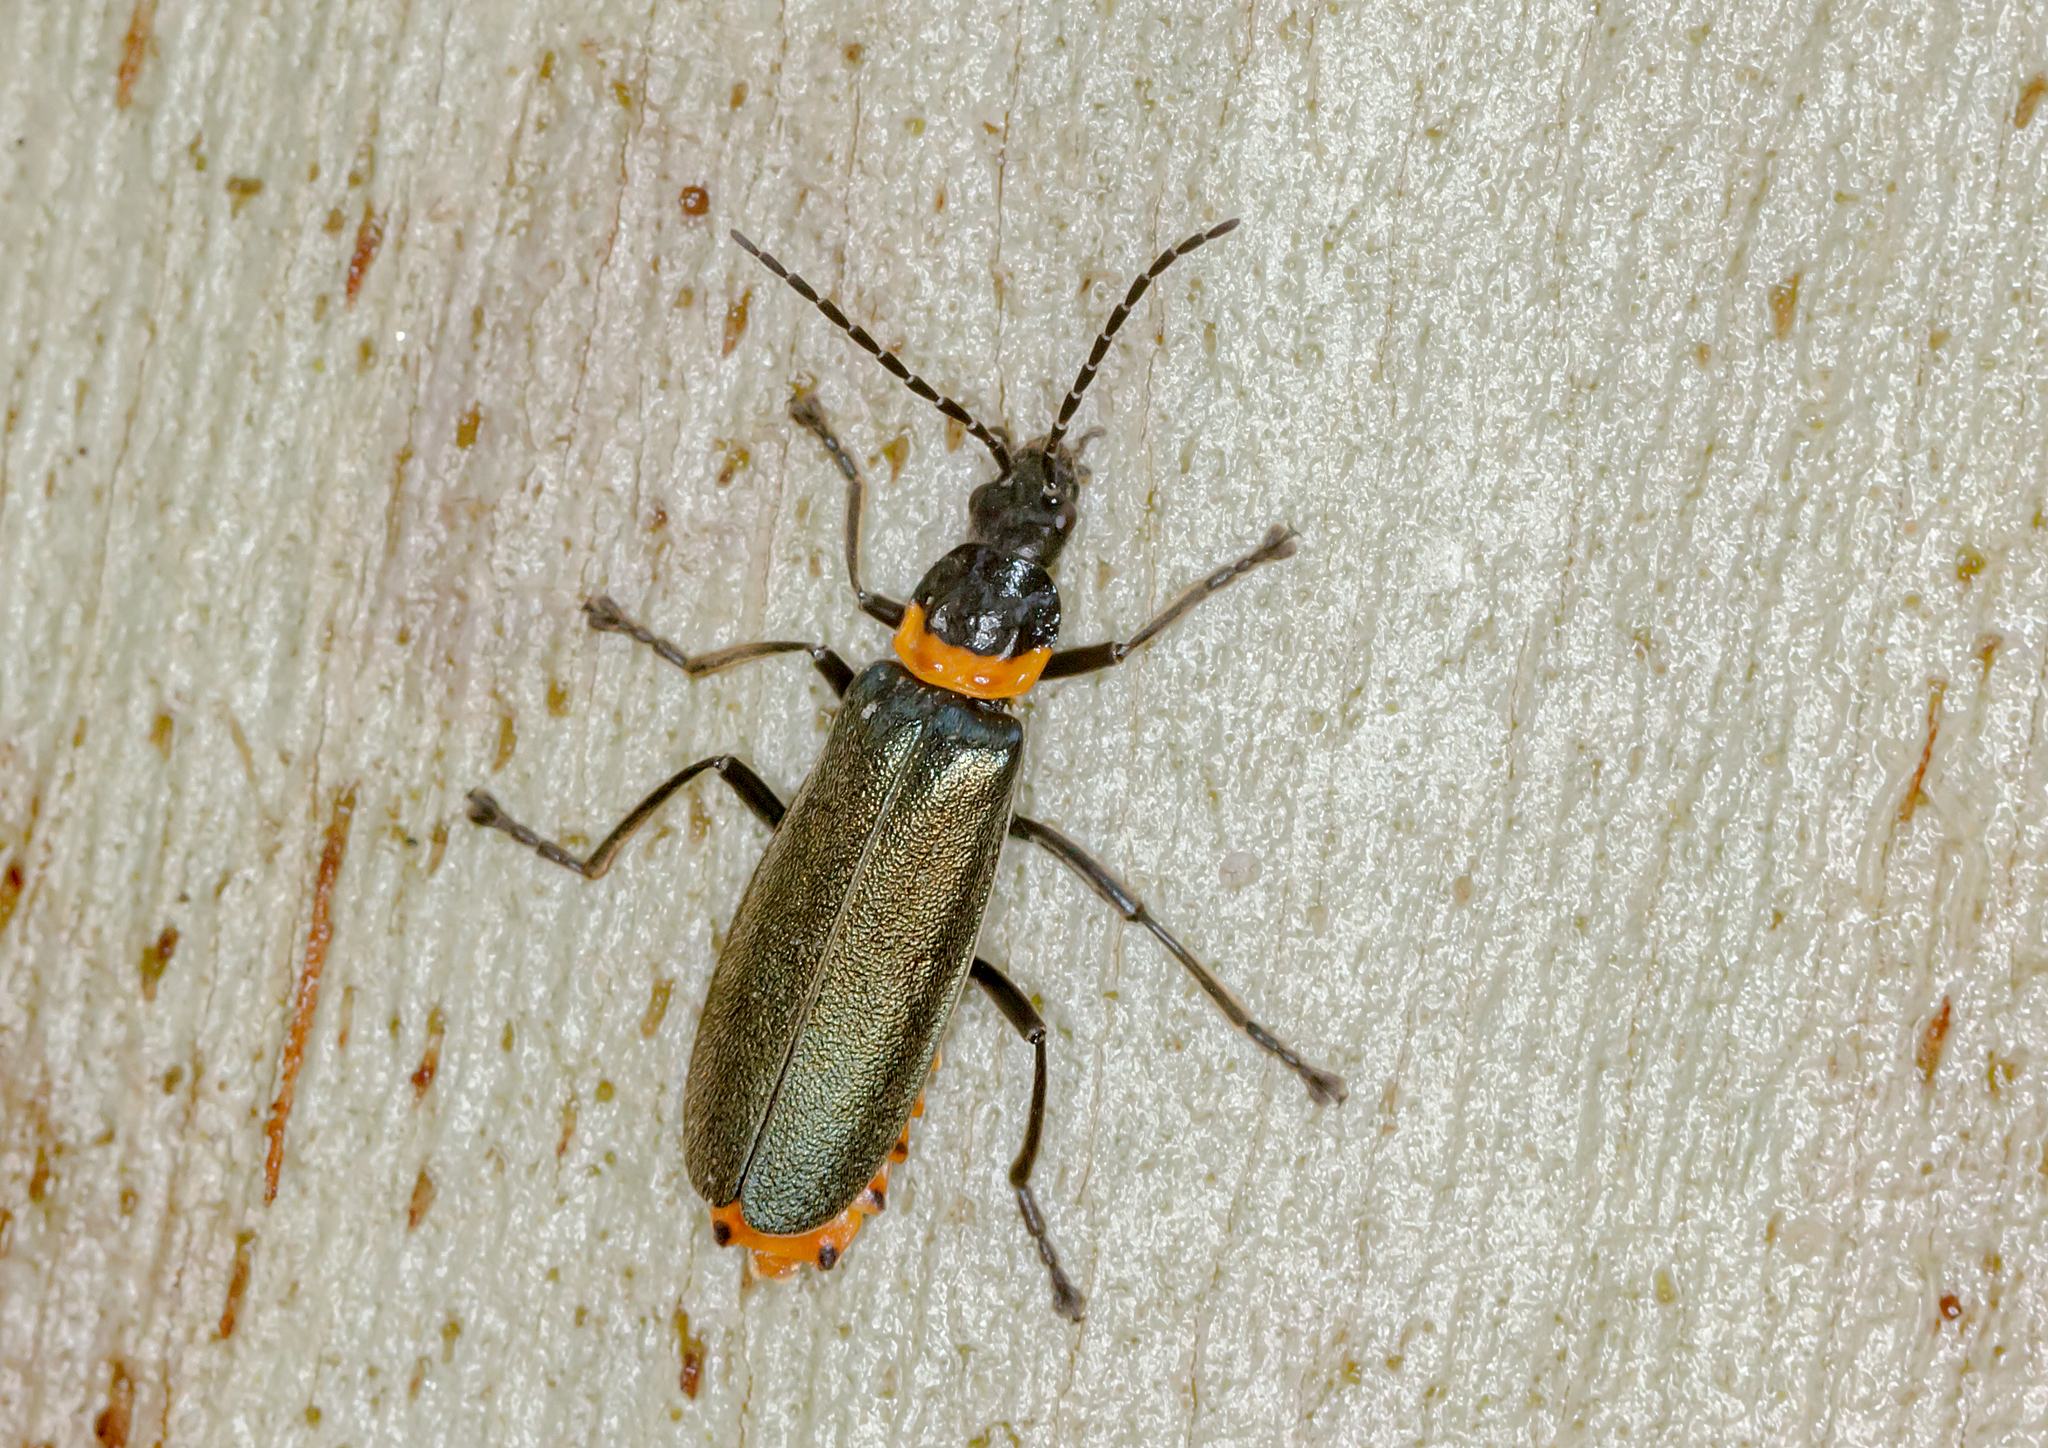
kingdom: Animalia
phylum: Arthropoda
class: Insecta
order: Coleoptera
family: Cantharidae
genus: Chauliognathus
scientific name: Chauliognathus
